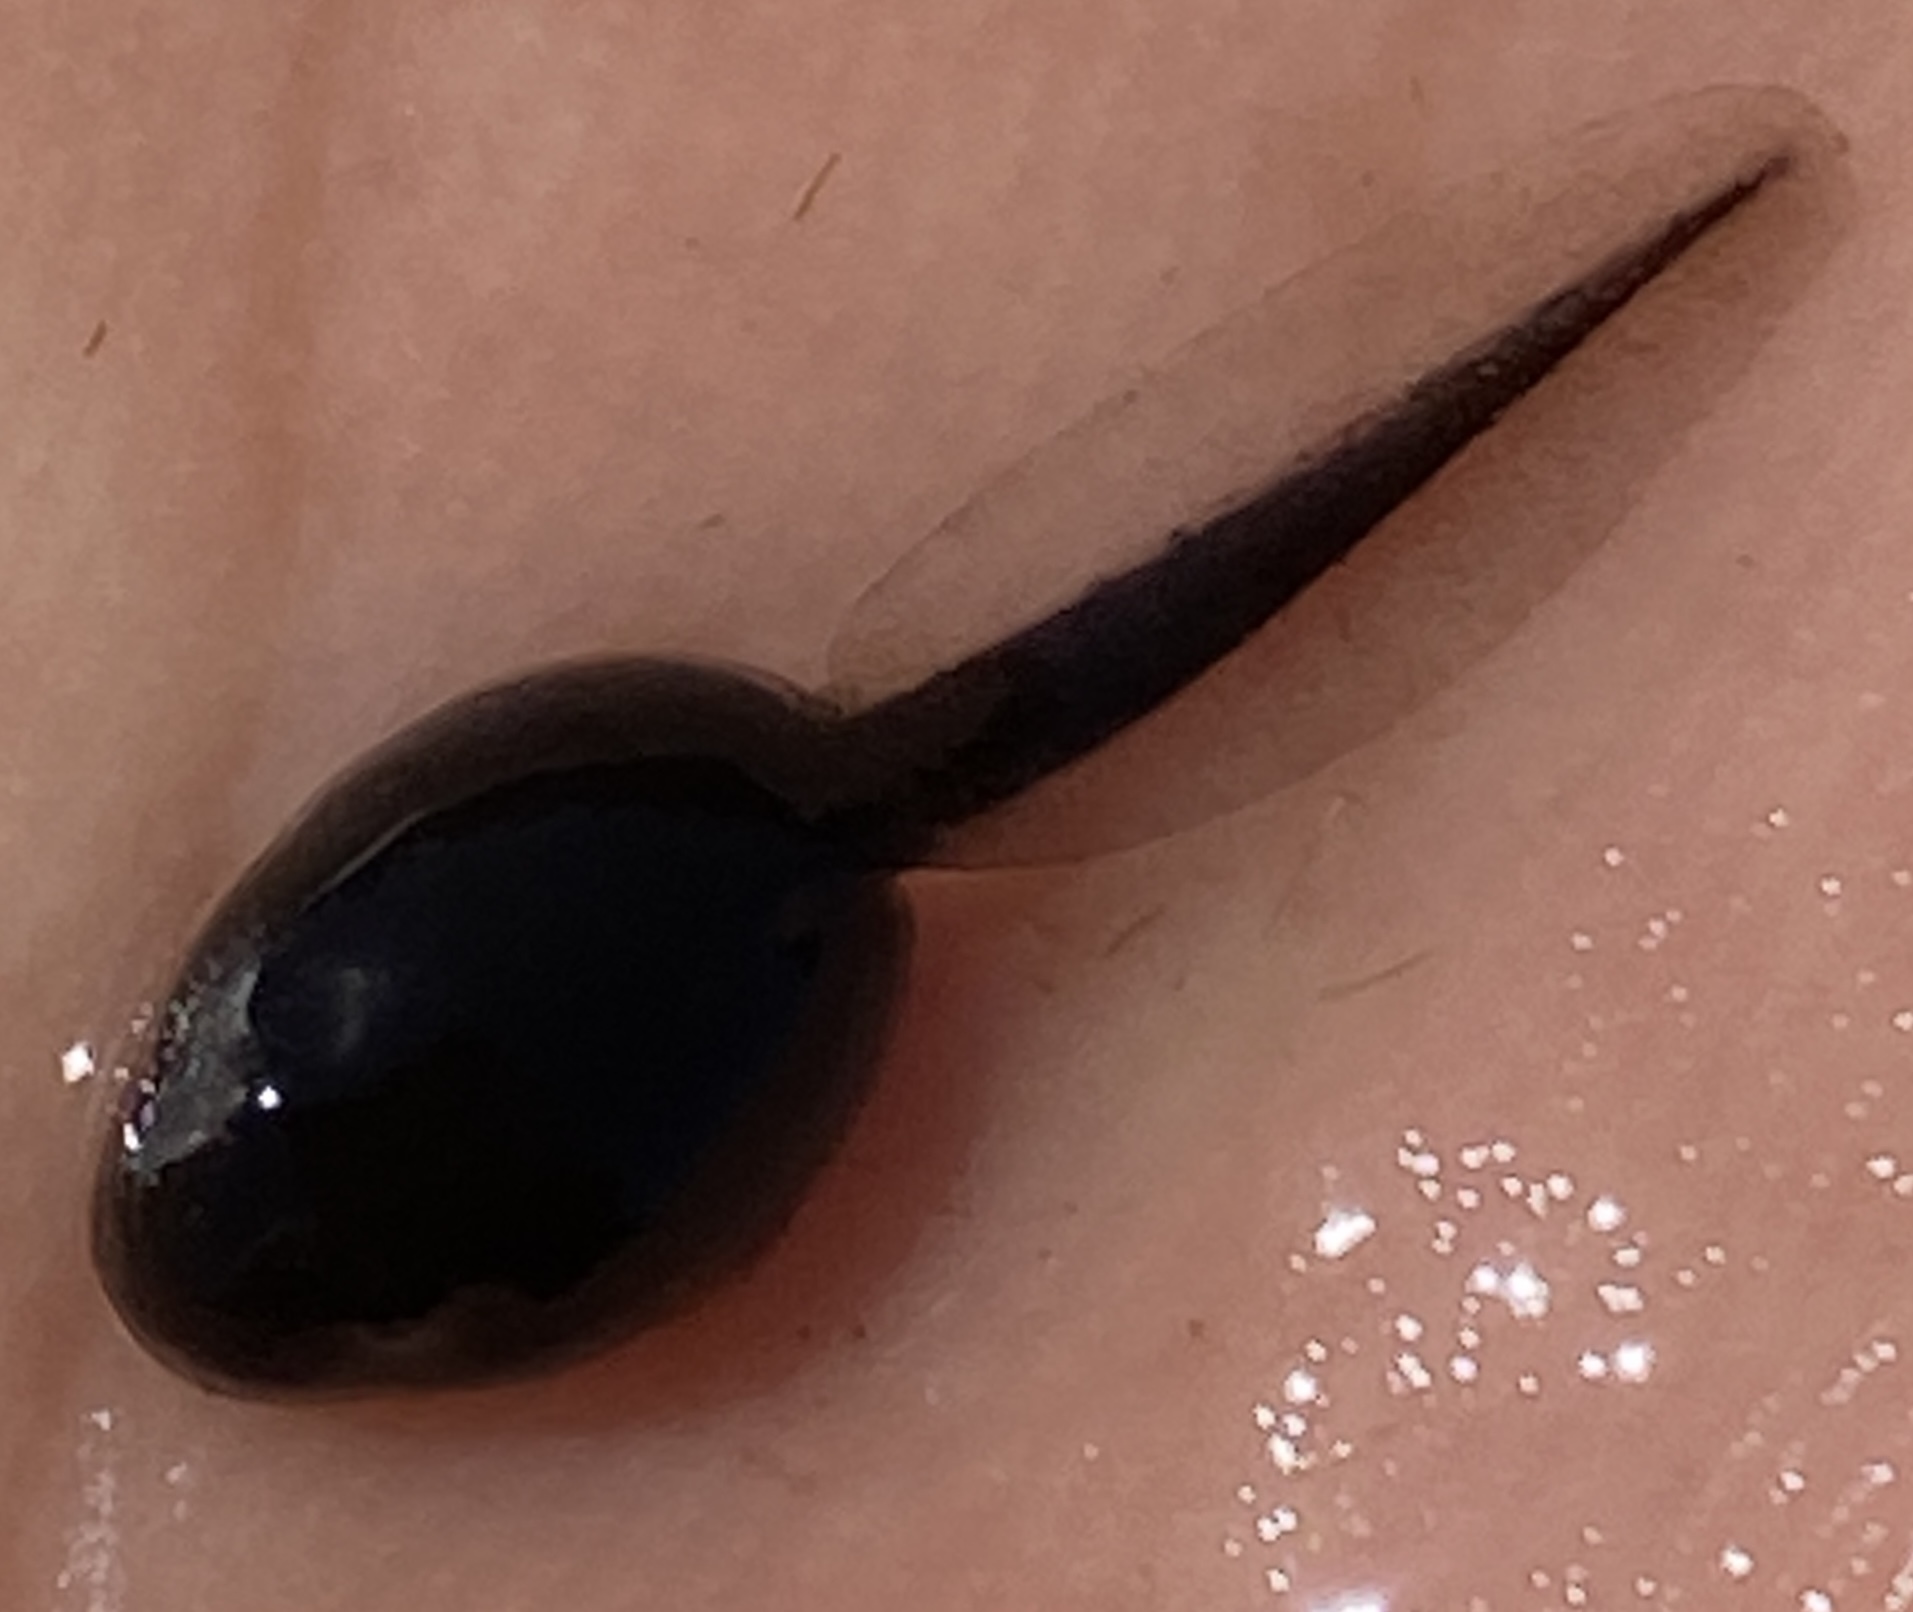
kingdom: Animalia
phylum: Chordata
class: Amphibia
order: Anura
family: Bufonidae
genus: Anaxyrus
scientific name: Anaxyrus boreas
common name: Western toad
